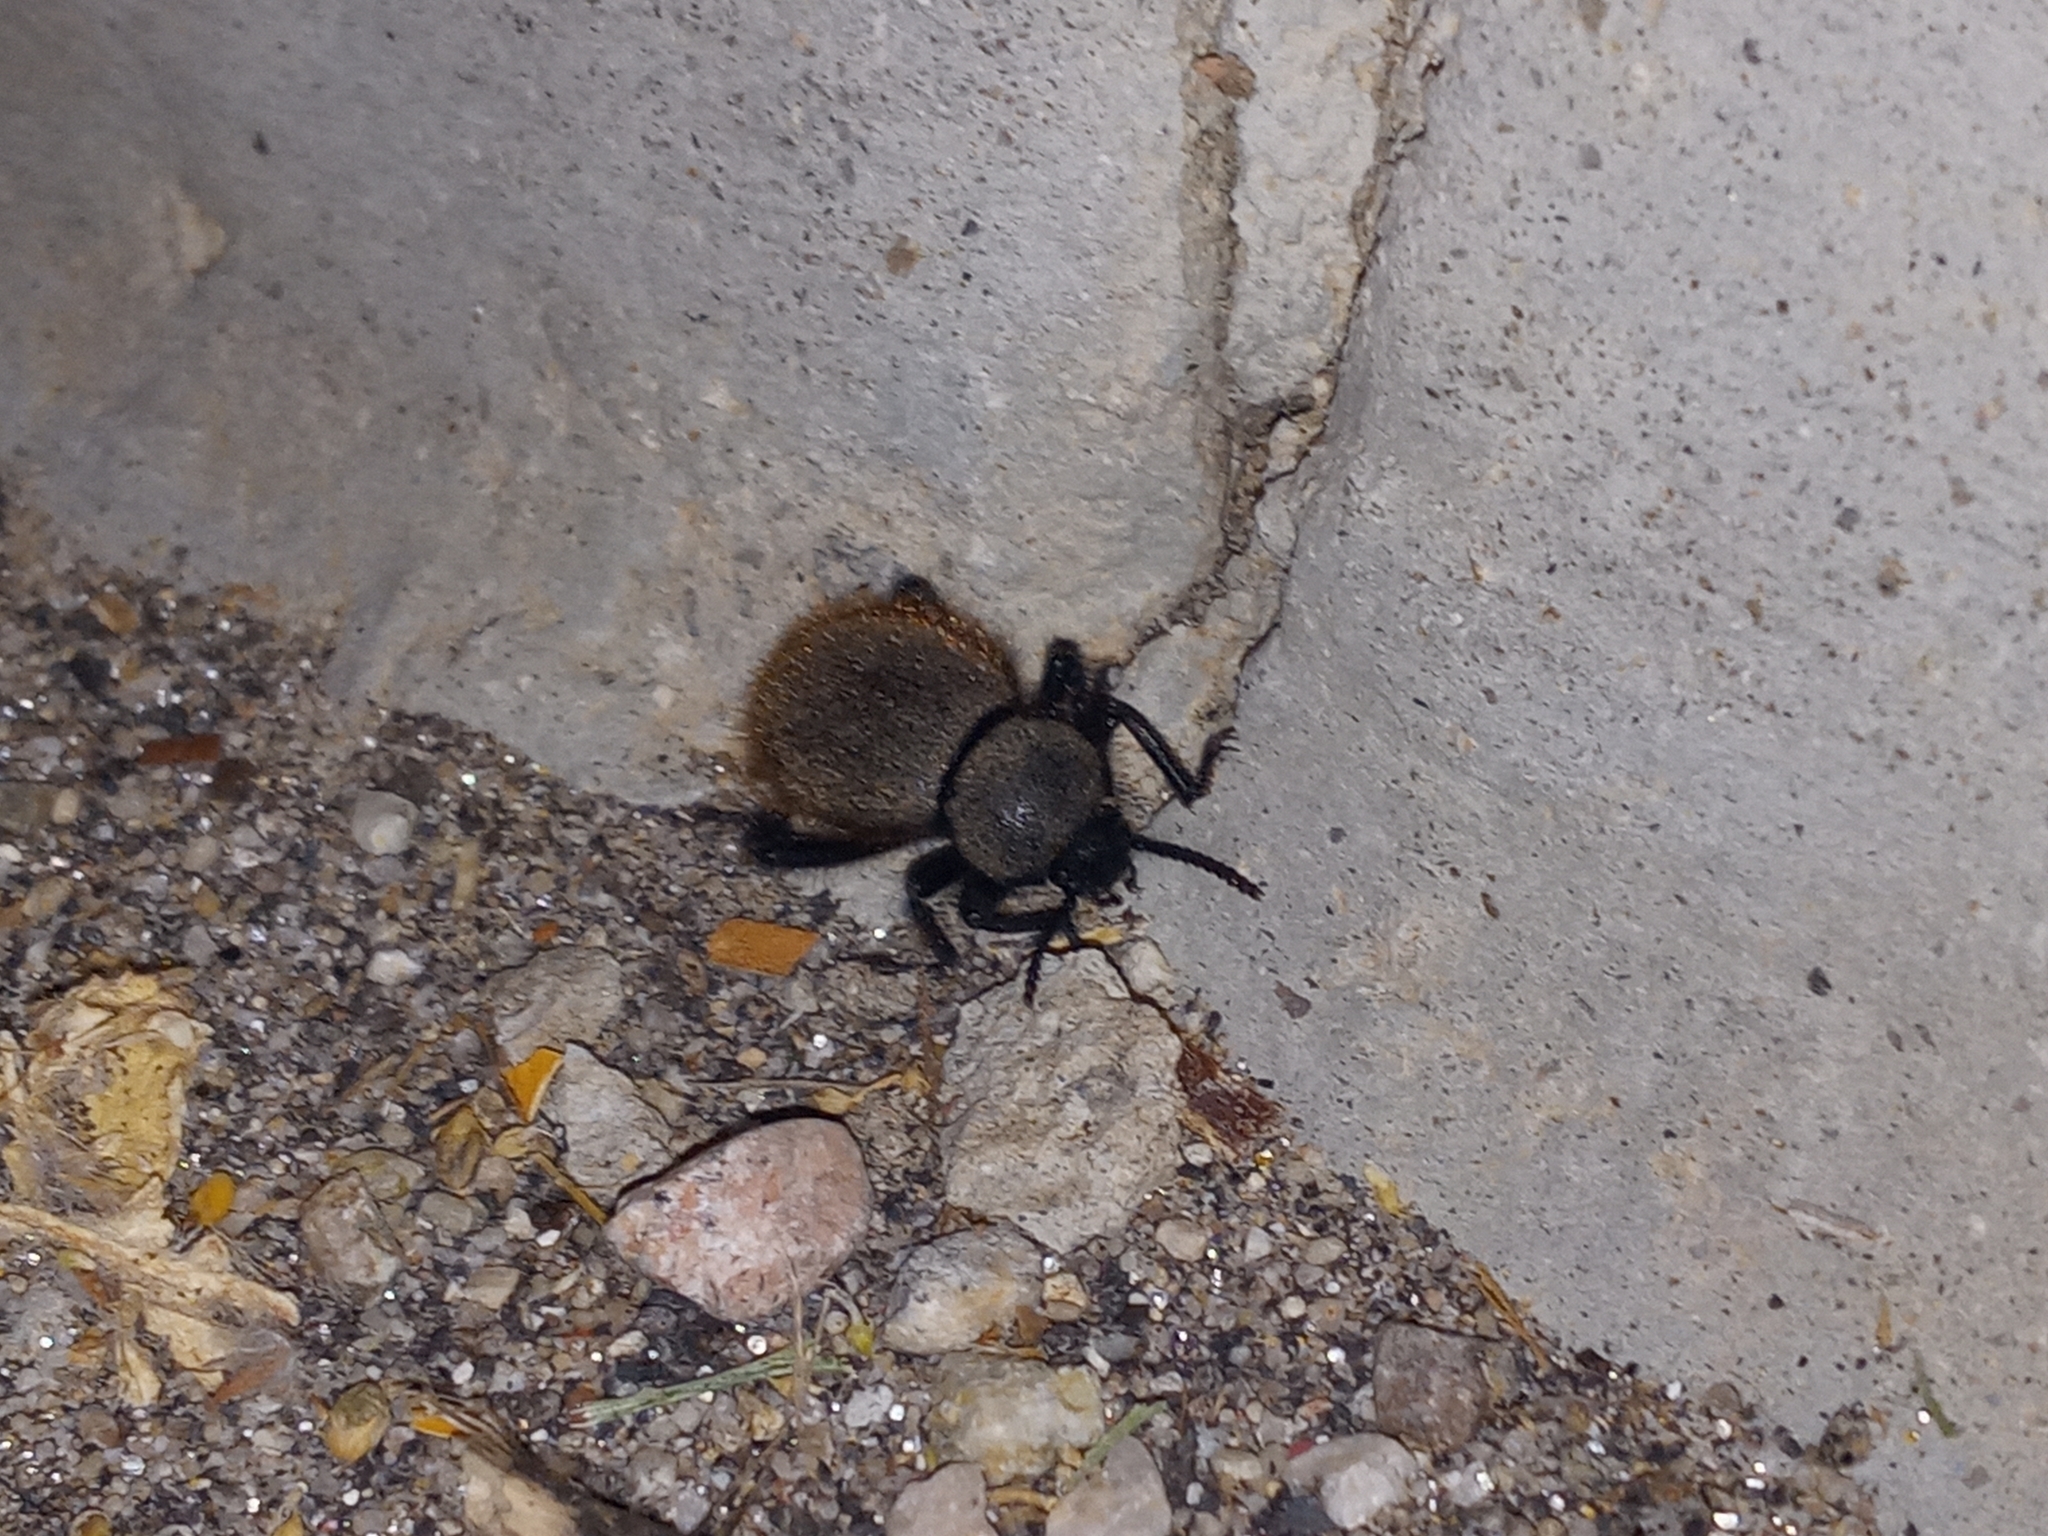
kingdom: Animalia
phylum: Arthropoda
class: Insecta
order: Coleoptera
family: Tenebrionidae
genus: Eleodes
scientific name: Eleodes osculans
